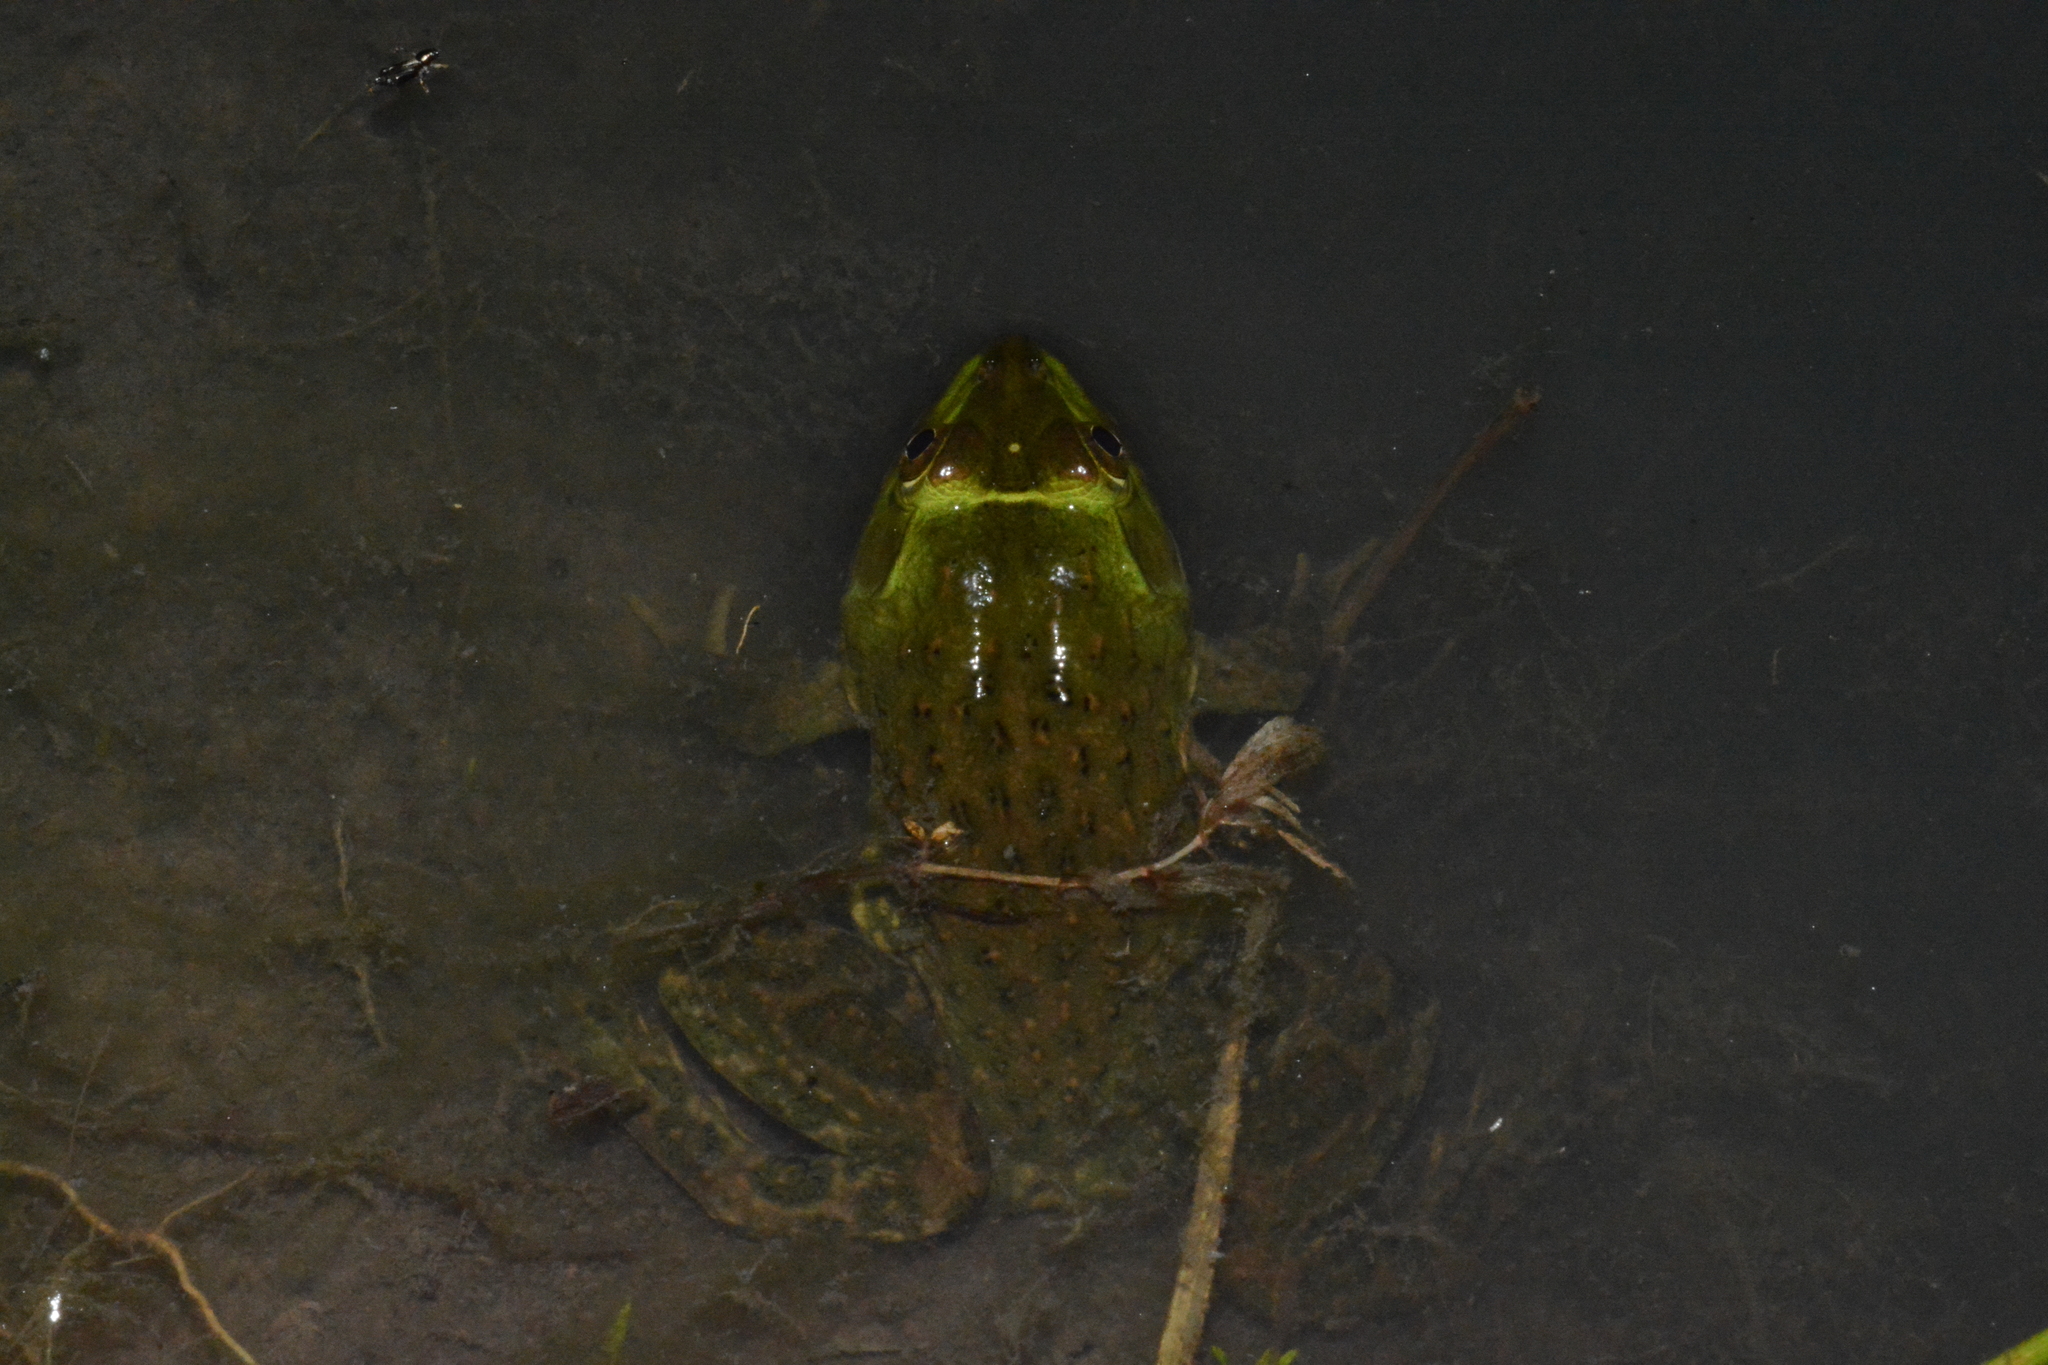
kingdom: Animalia
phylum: Chordata
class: Amphibia
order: Anura
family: Dicroglossidae
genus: Hoplobatrachus
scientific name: Hoplobatrachus occipitalis
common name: Eastern groove-crowned bullfrog
